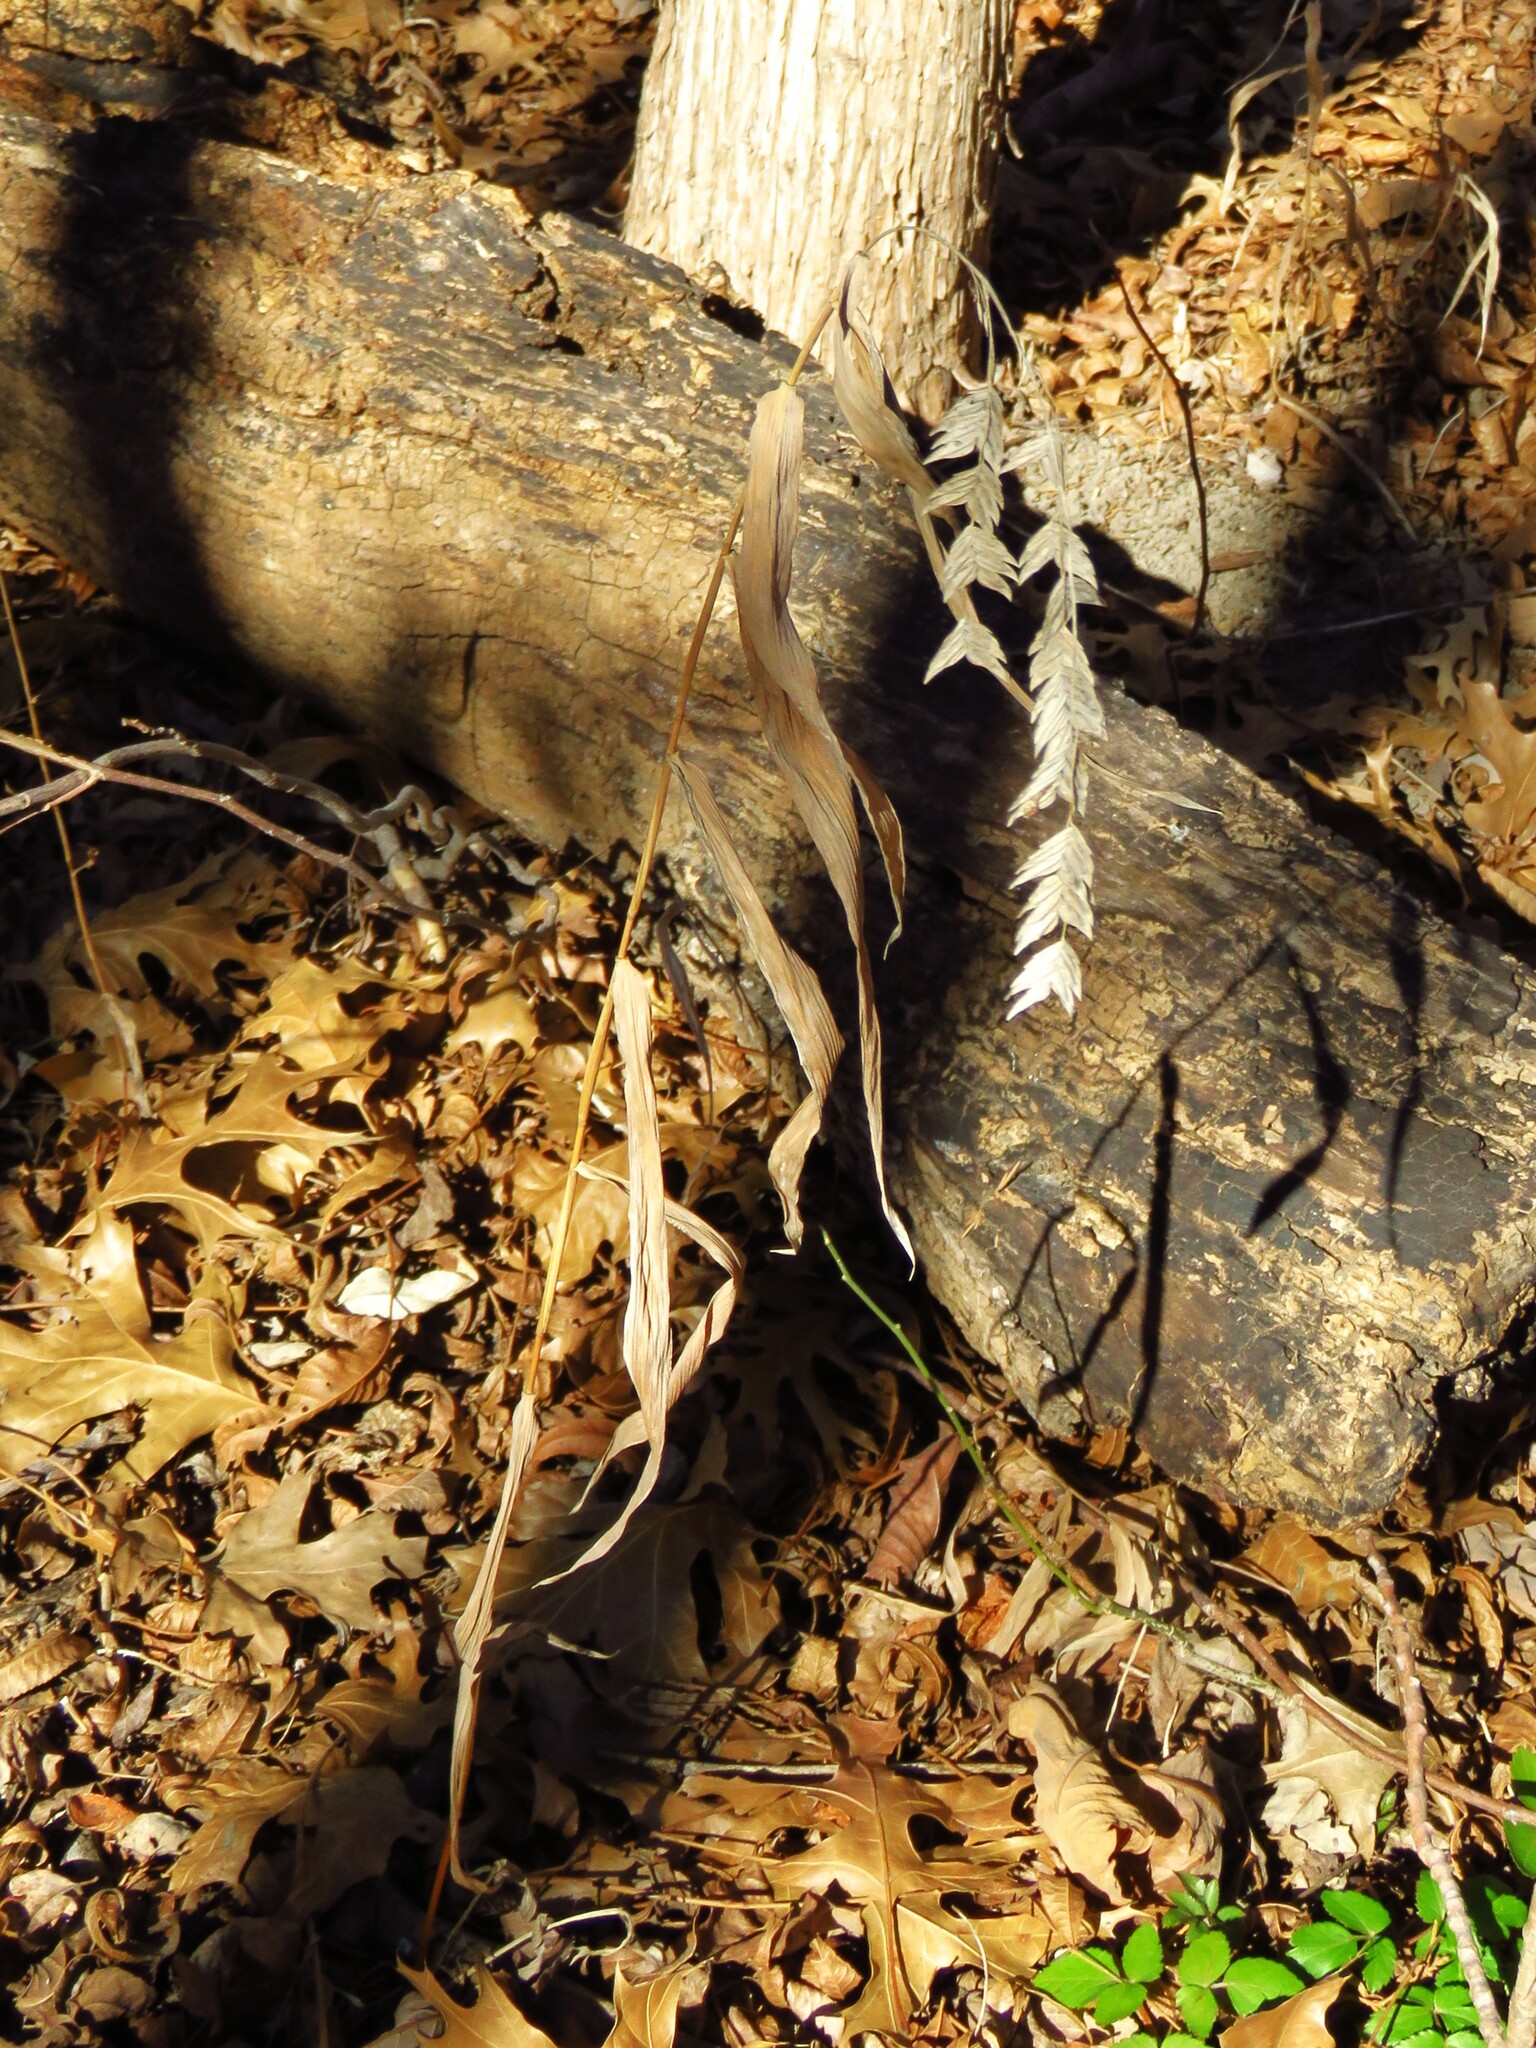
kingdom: Plantae
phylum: Tracheophyta
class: Liliopsida
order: Poales
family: Poaceae
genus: Chasmanthium
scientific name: Chasmanthium latifolium
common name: Broad-leaved chasmanthium
